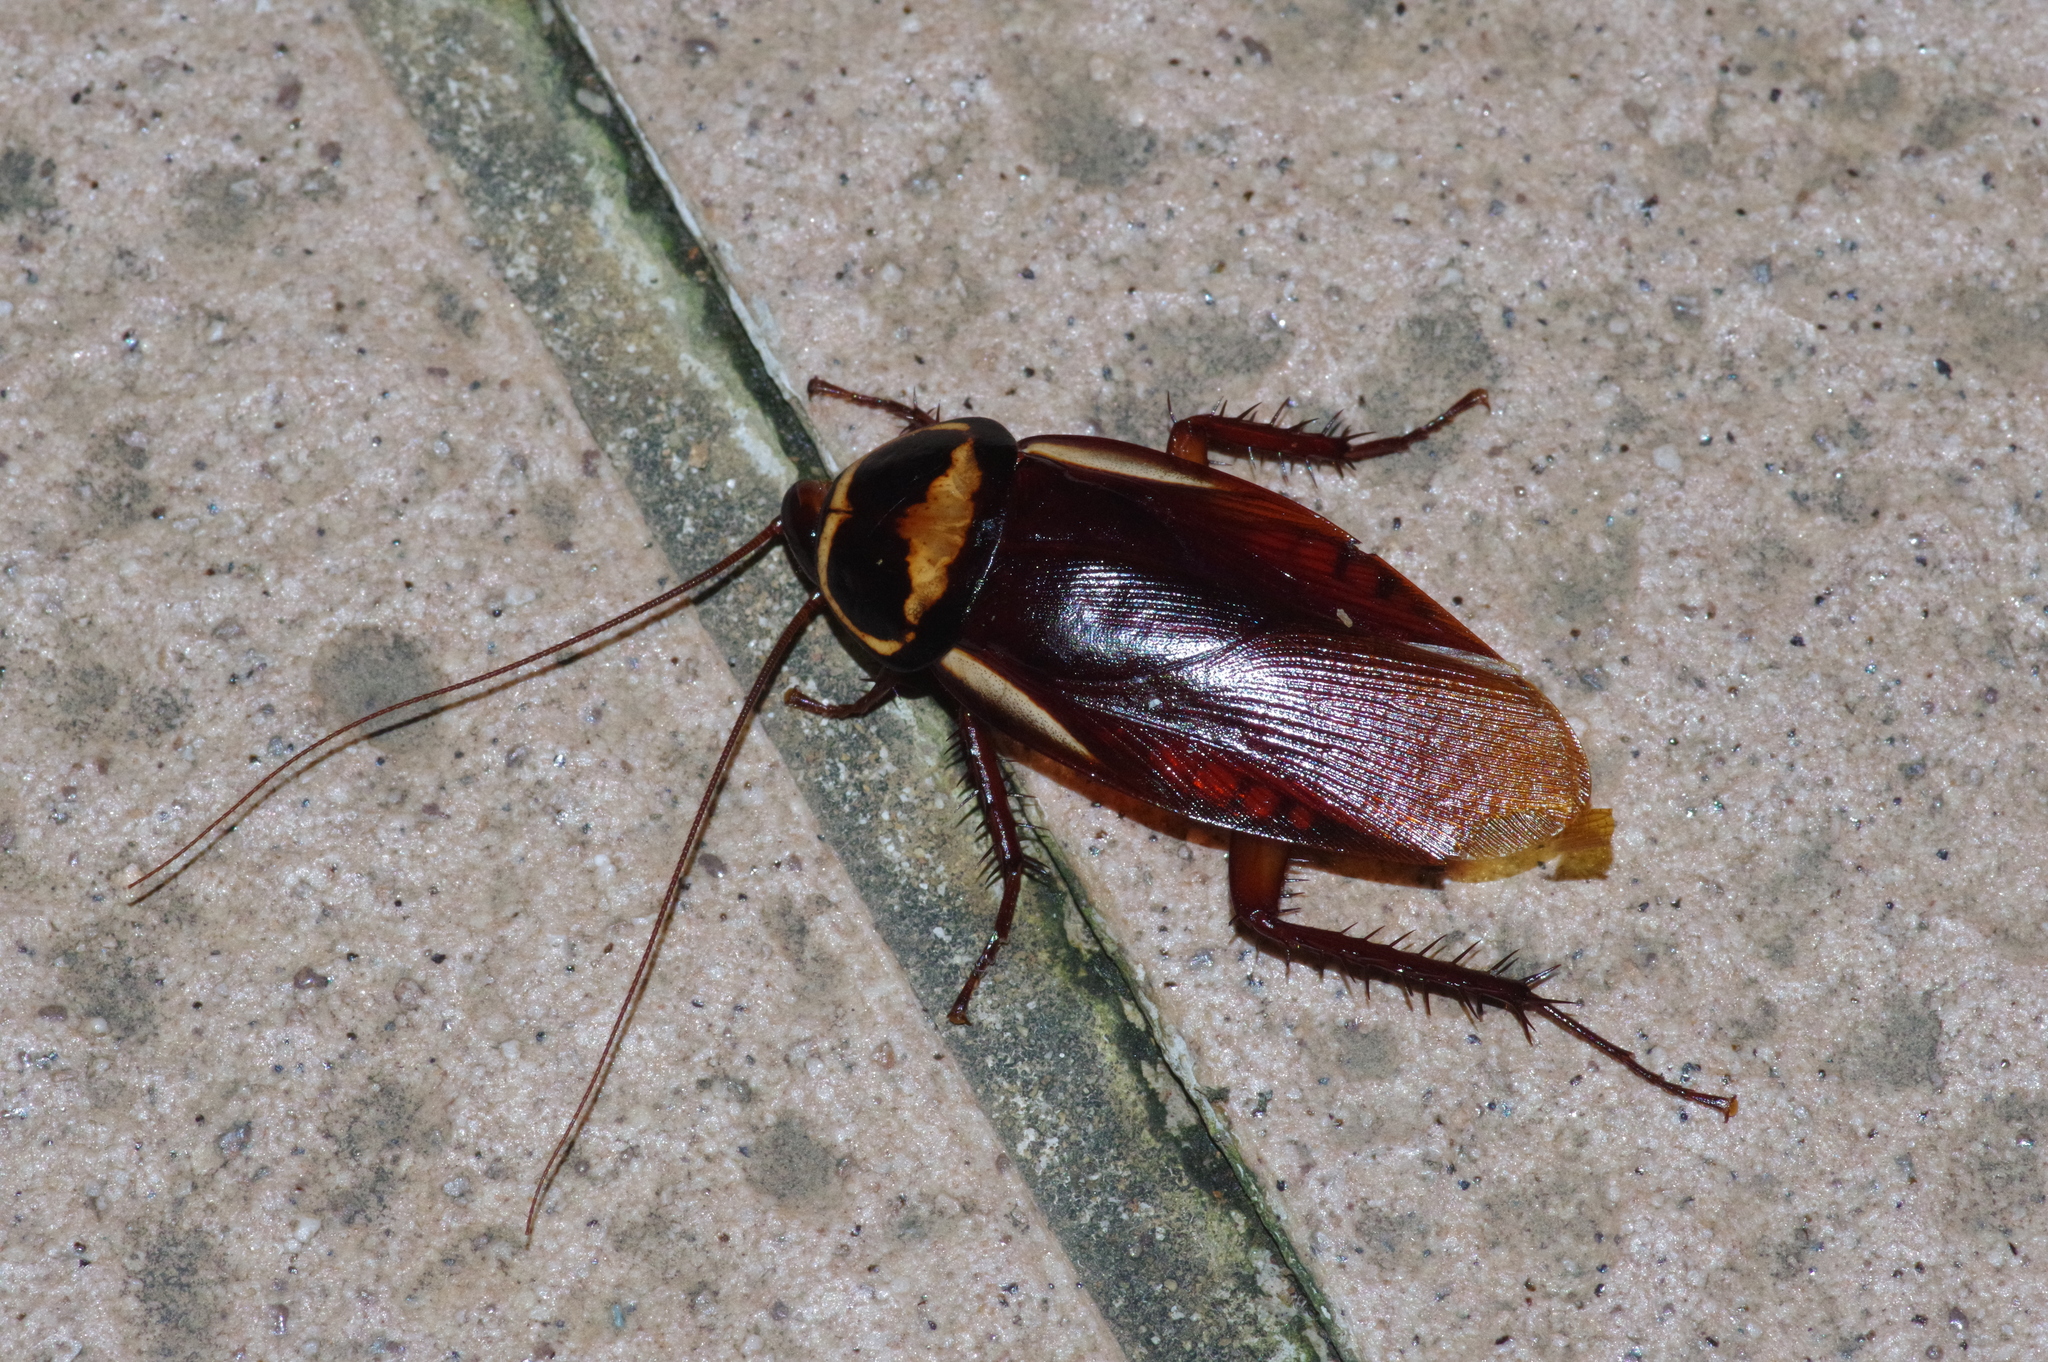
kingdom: Animalia
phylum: Arthropoda
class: Insecta
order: Blattodea
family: Blattidae
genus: Periplaneta
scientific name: Periplaneta australasiae
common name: Australian cockroach
